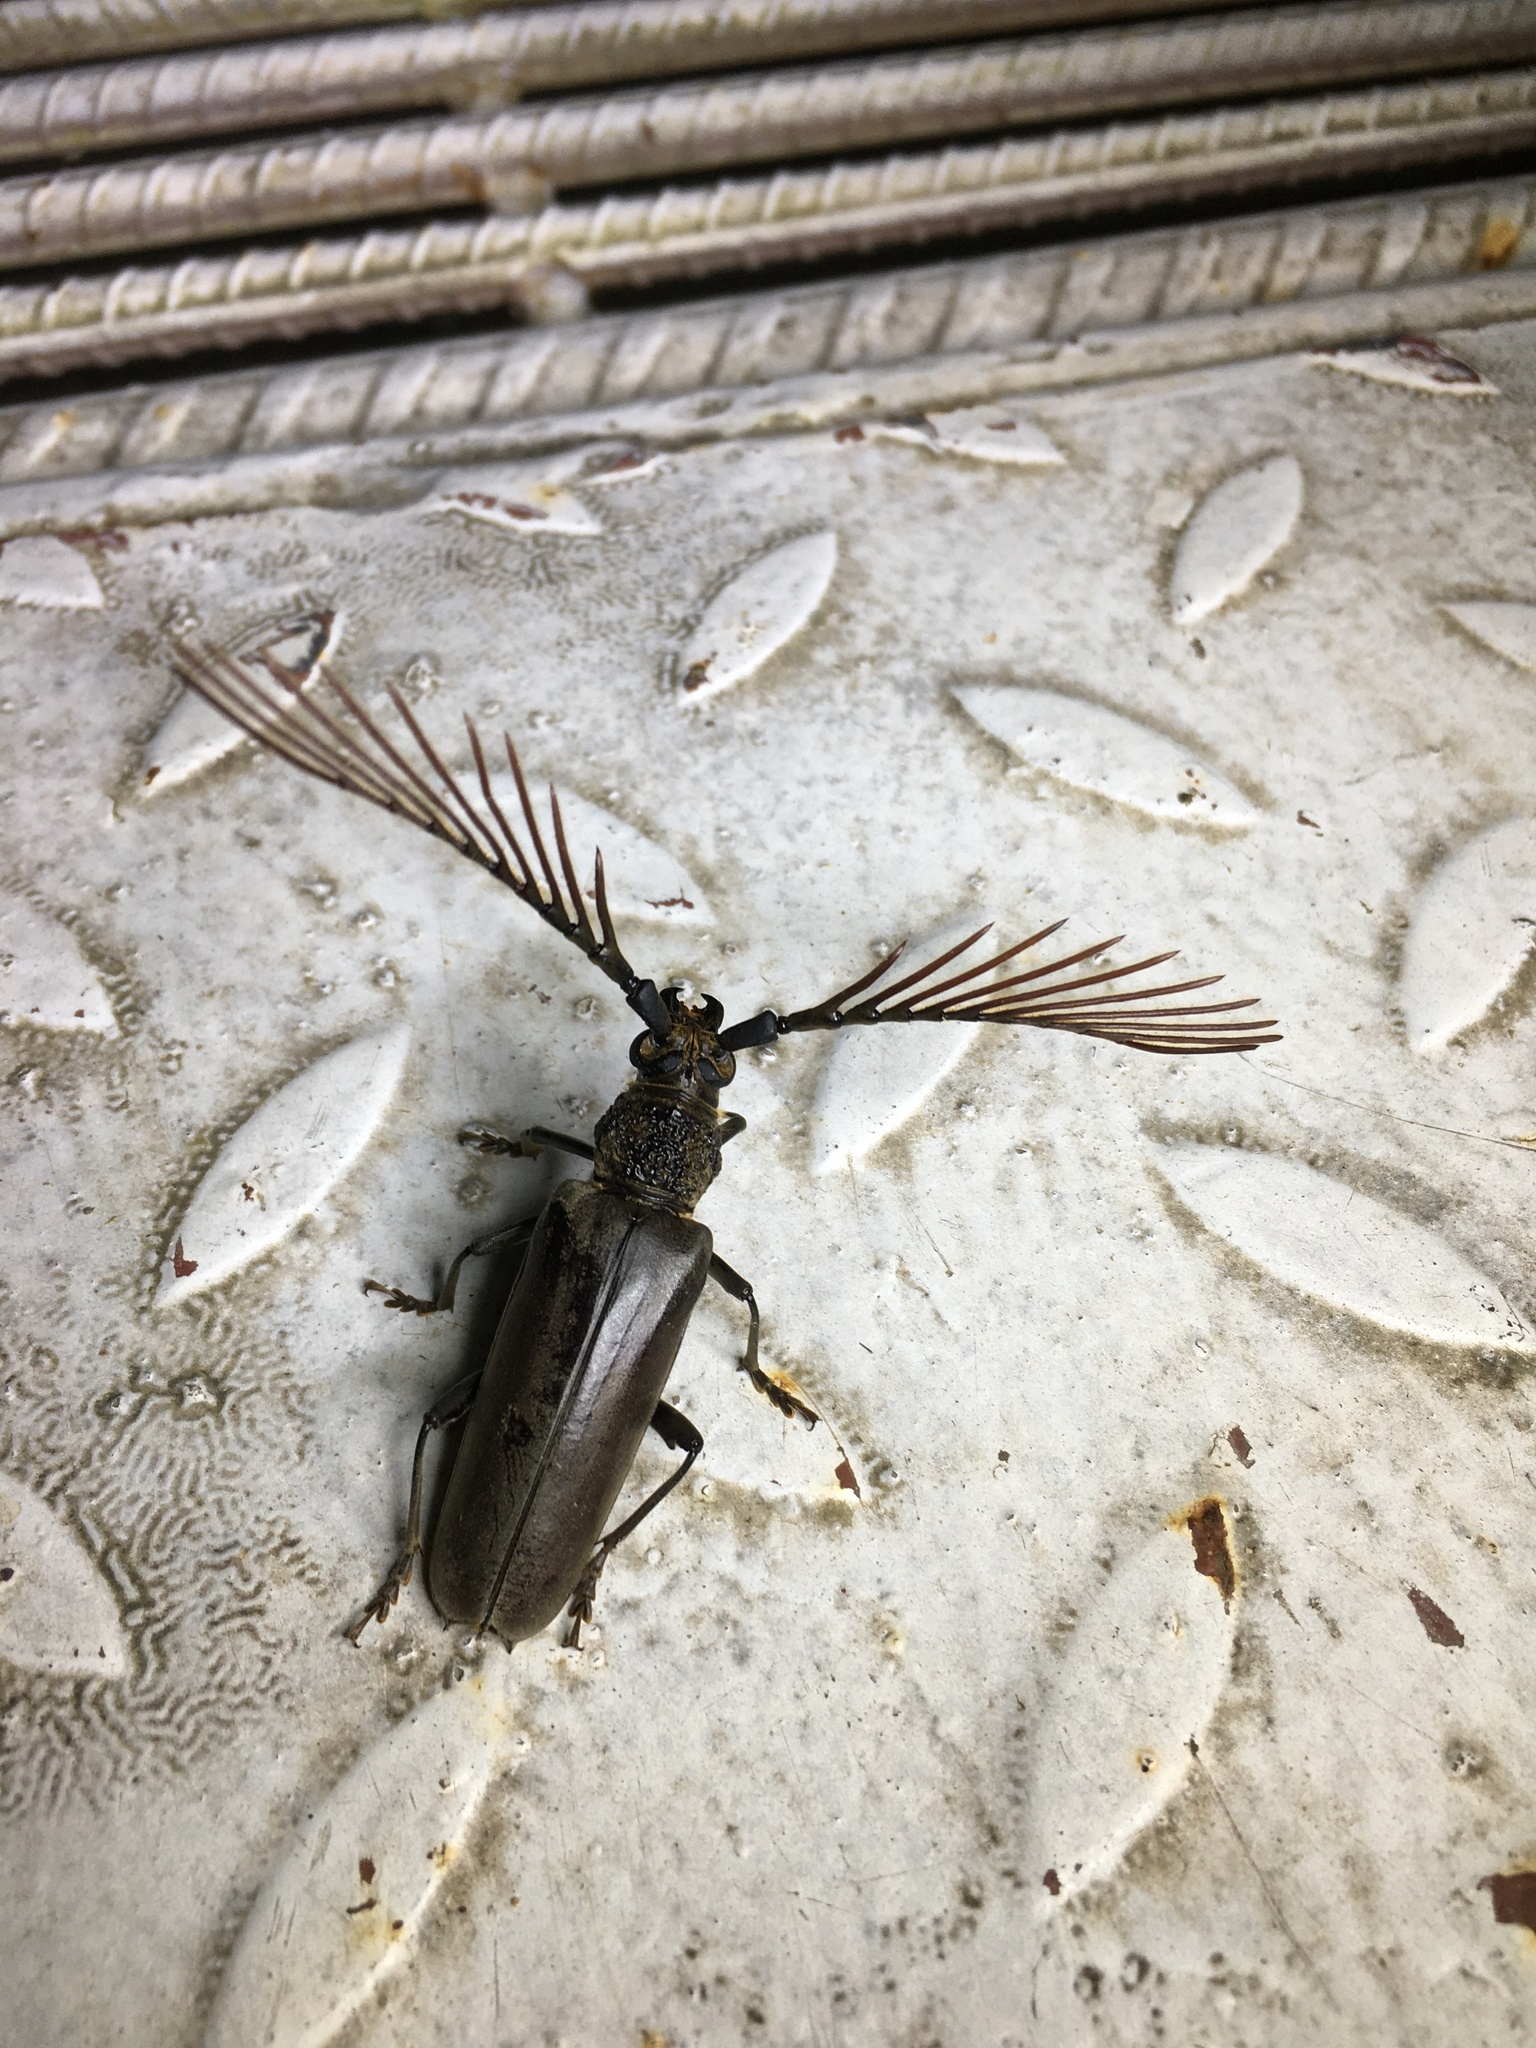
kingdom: Animalia
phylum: Arthropoda
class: Insecta
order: Coleoptera
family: Cerambycidae
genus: Cyriopalus
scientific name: Cyriopalus wallacei
